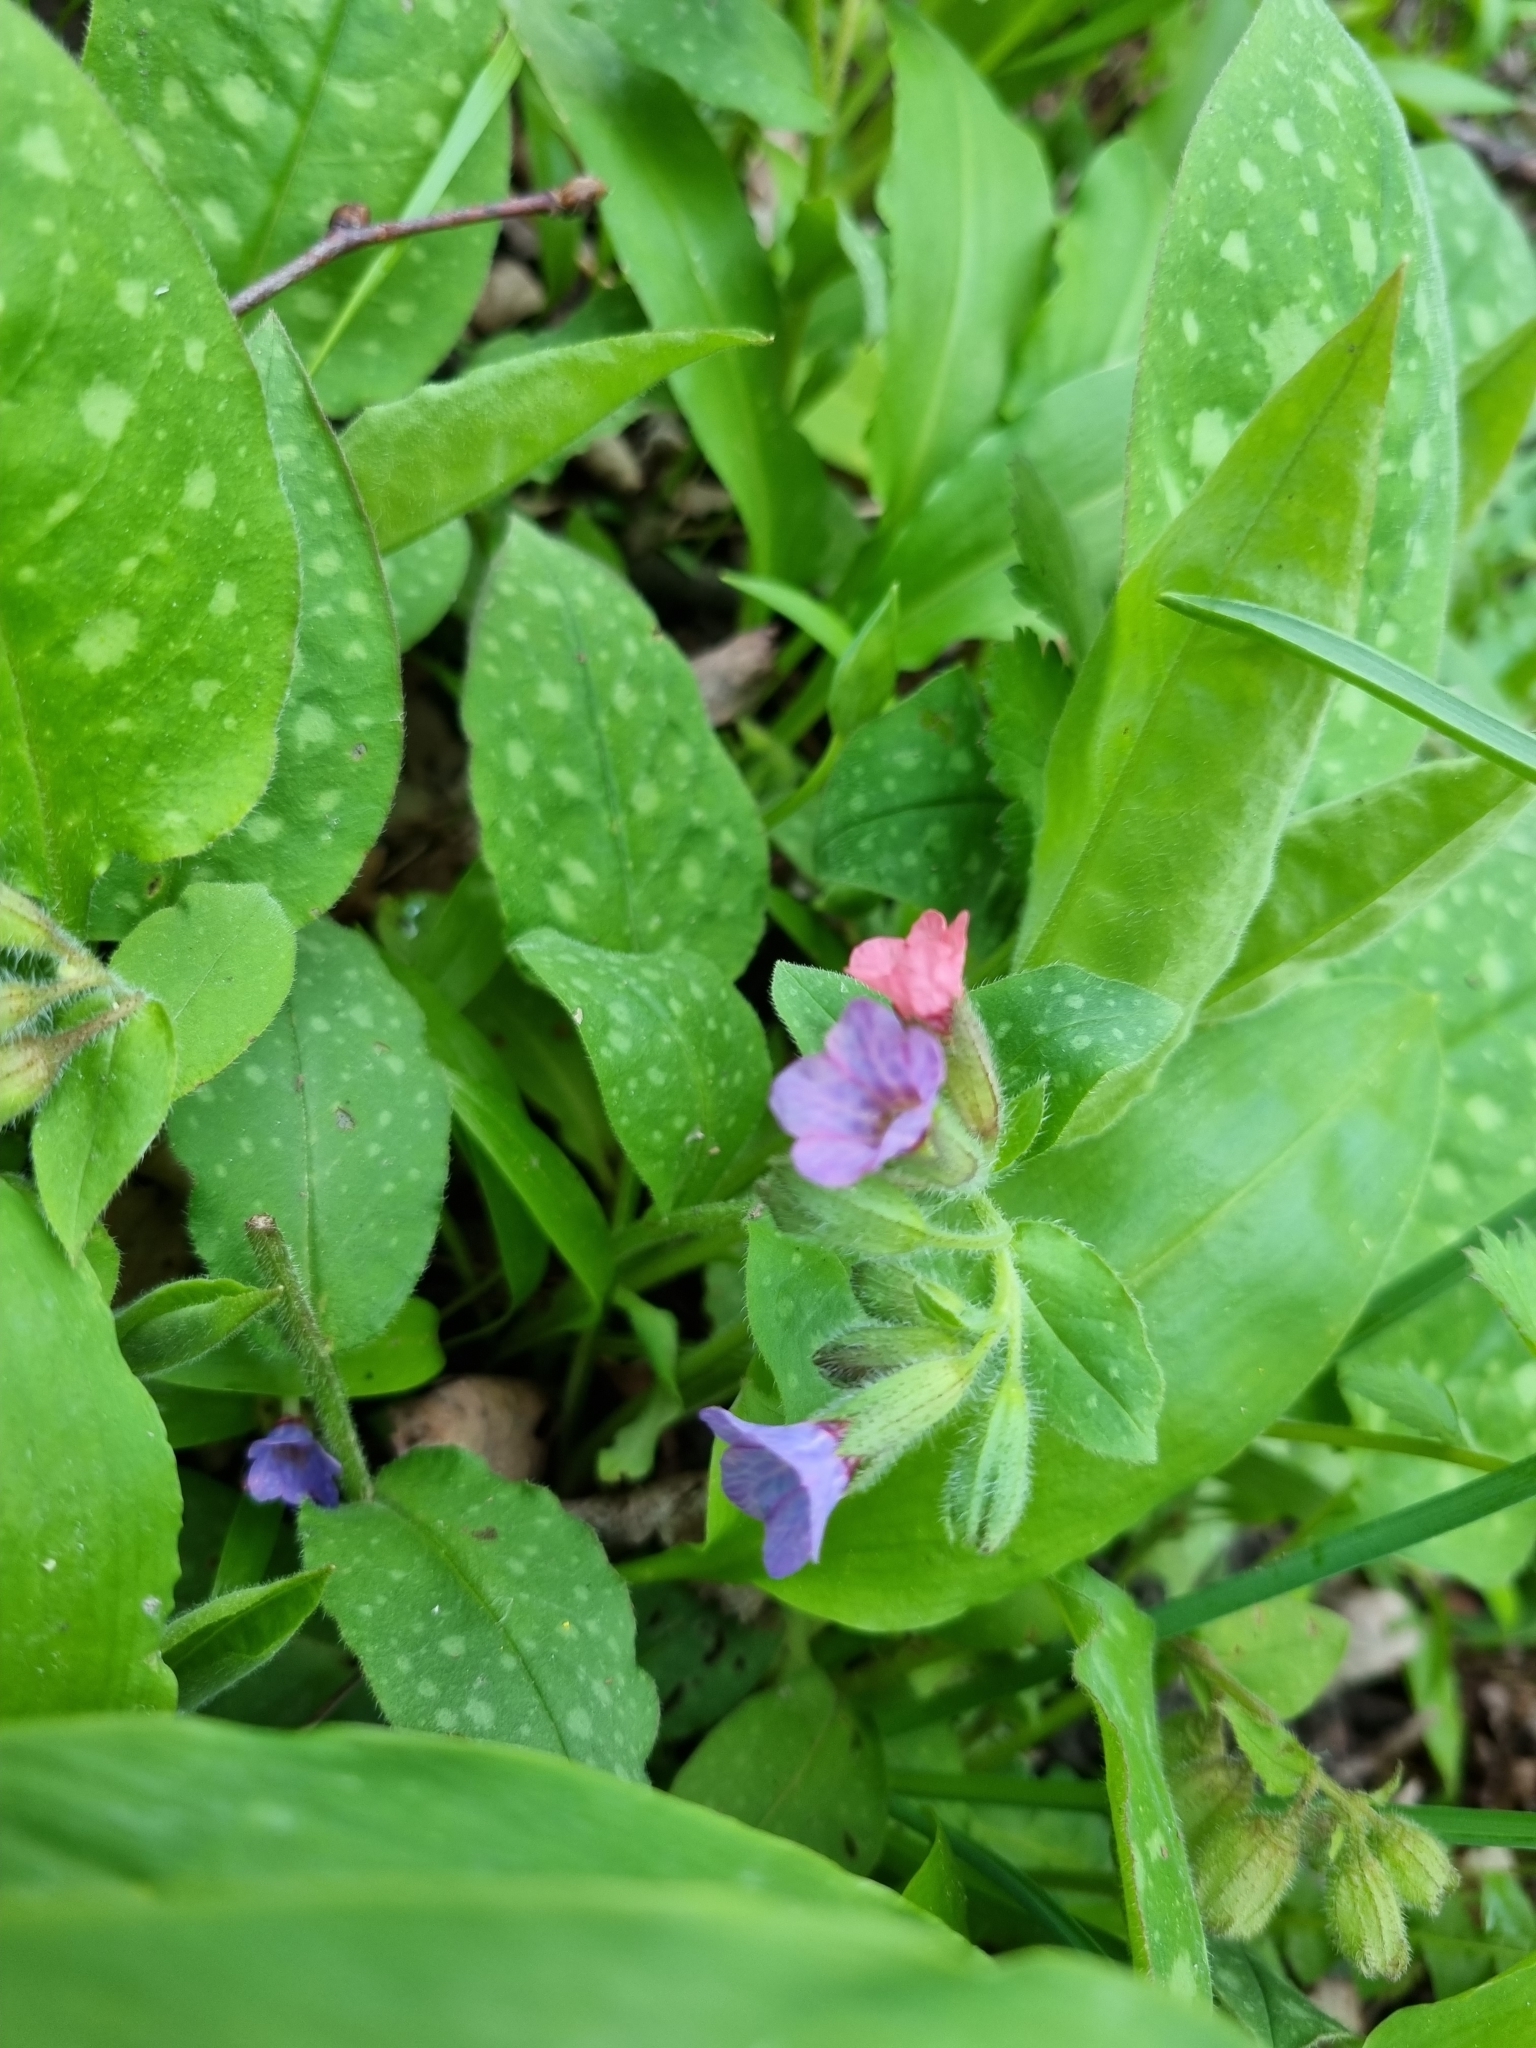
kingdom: Plantae
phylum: Tracheophyta
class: Magnoliopsida
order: Boraginales
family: Boraginaceae
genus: Pulmonaria
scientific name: Pulmonaria officinalis
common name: Lungwort
